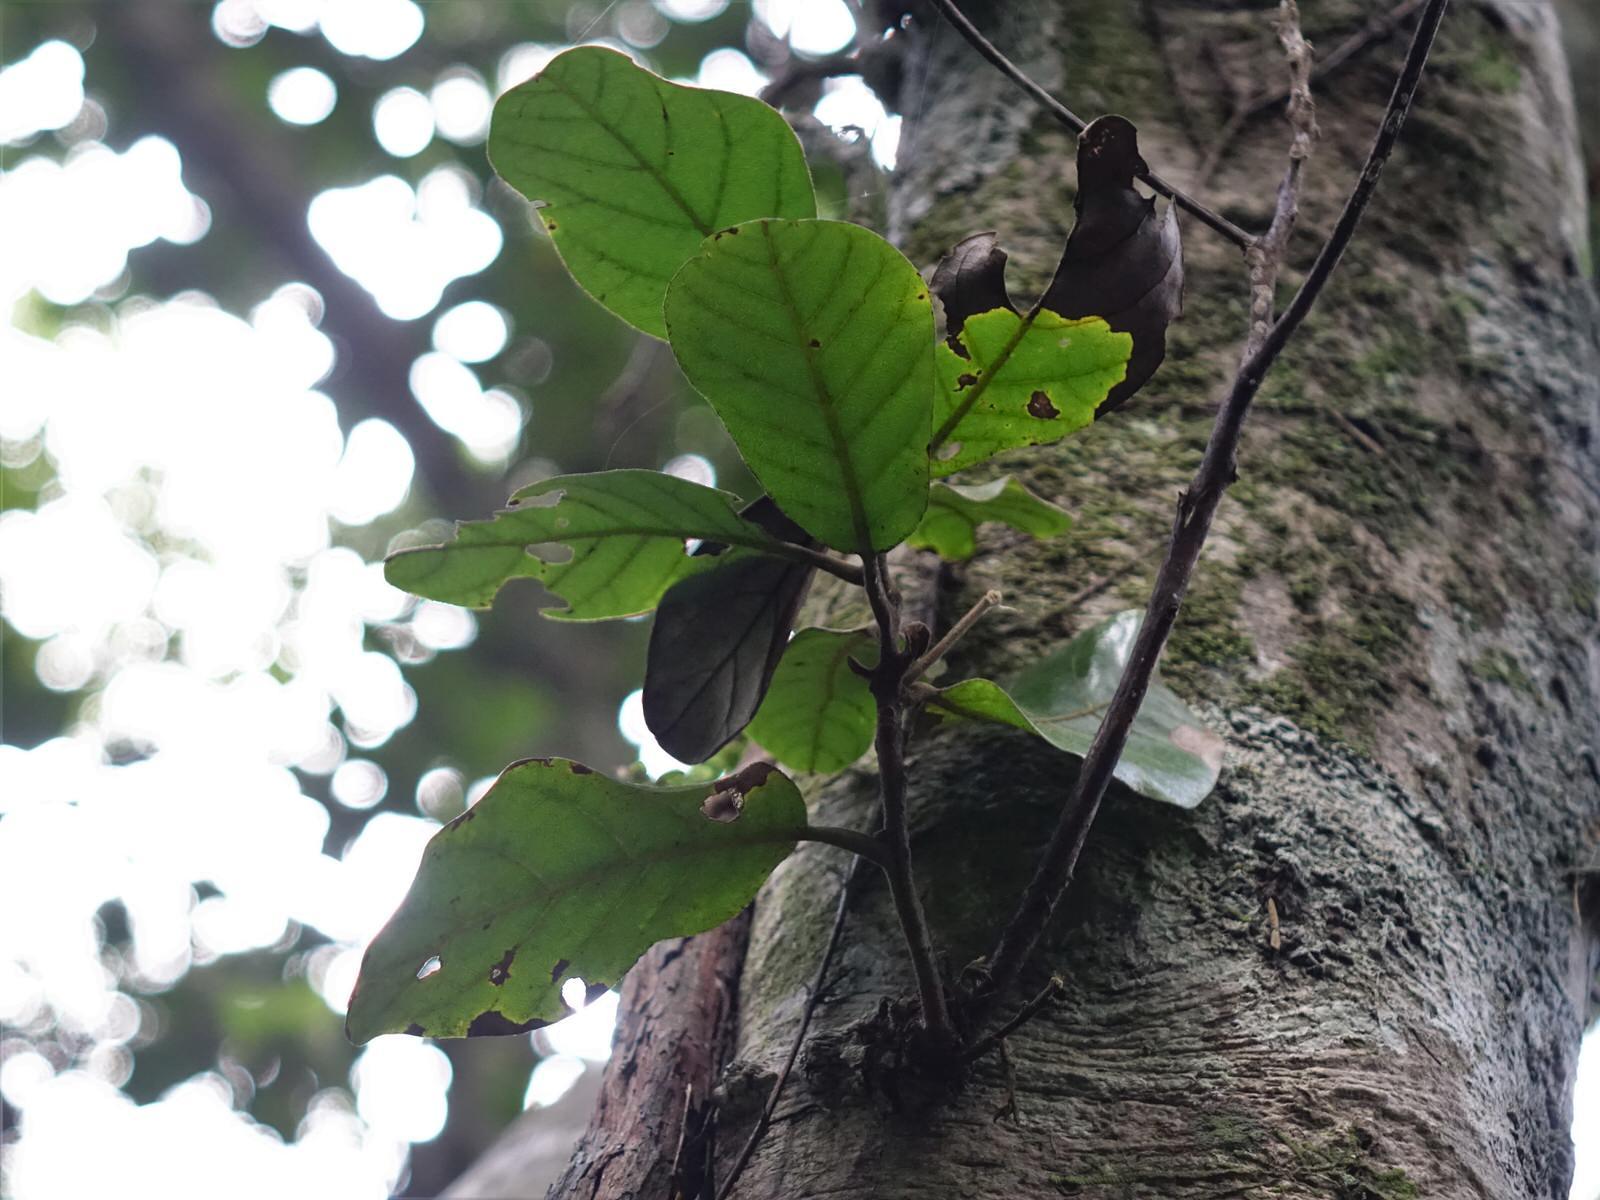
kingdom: Plantae
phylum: Tracheophyta
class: Magnoliopsida
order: Laurales
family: Lauraceae
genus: Beilschmiedia
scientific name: Beilschmiedia tarairi
